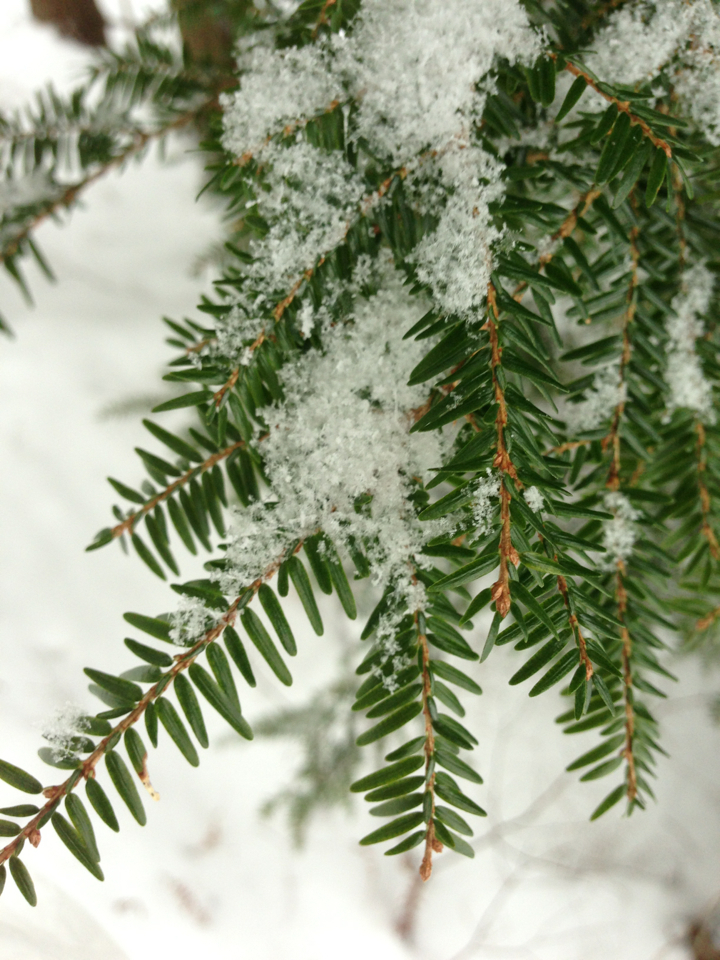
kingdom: Plantae
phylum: Tracheophyta
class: Pinopsida
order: Pinales
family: Pinaceae
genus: Tsuga
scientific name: Tsuga canadensis
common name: Eastern hemlock
